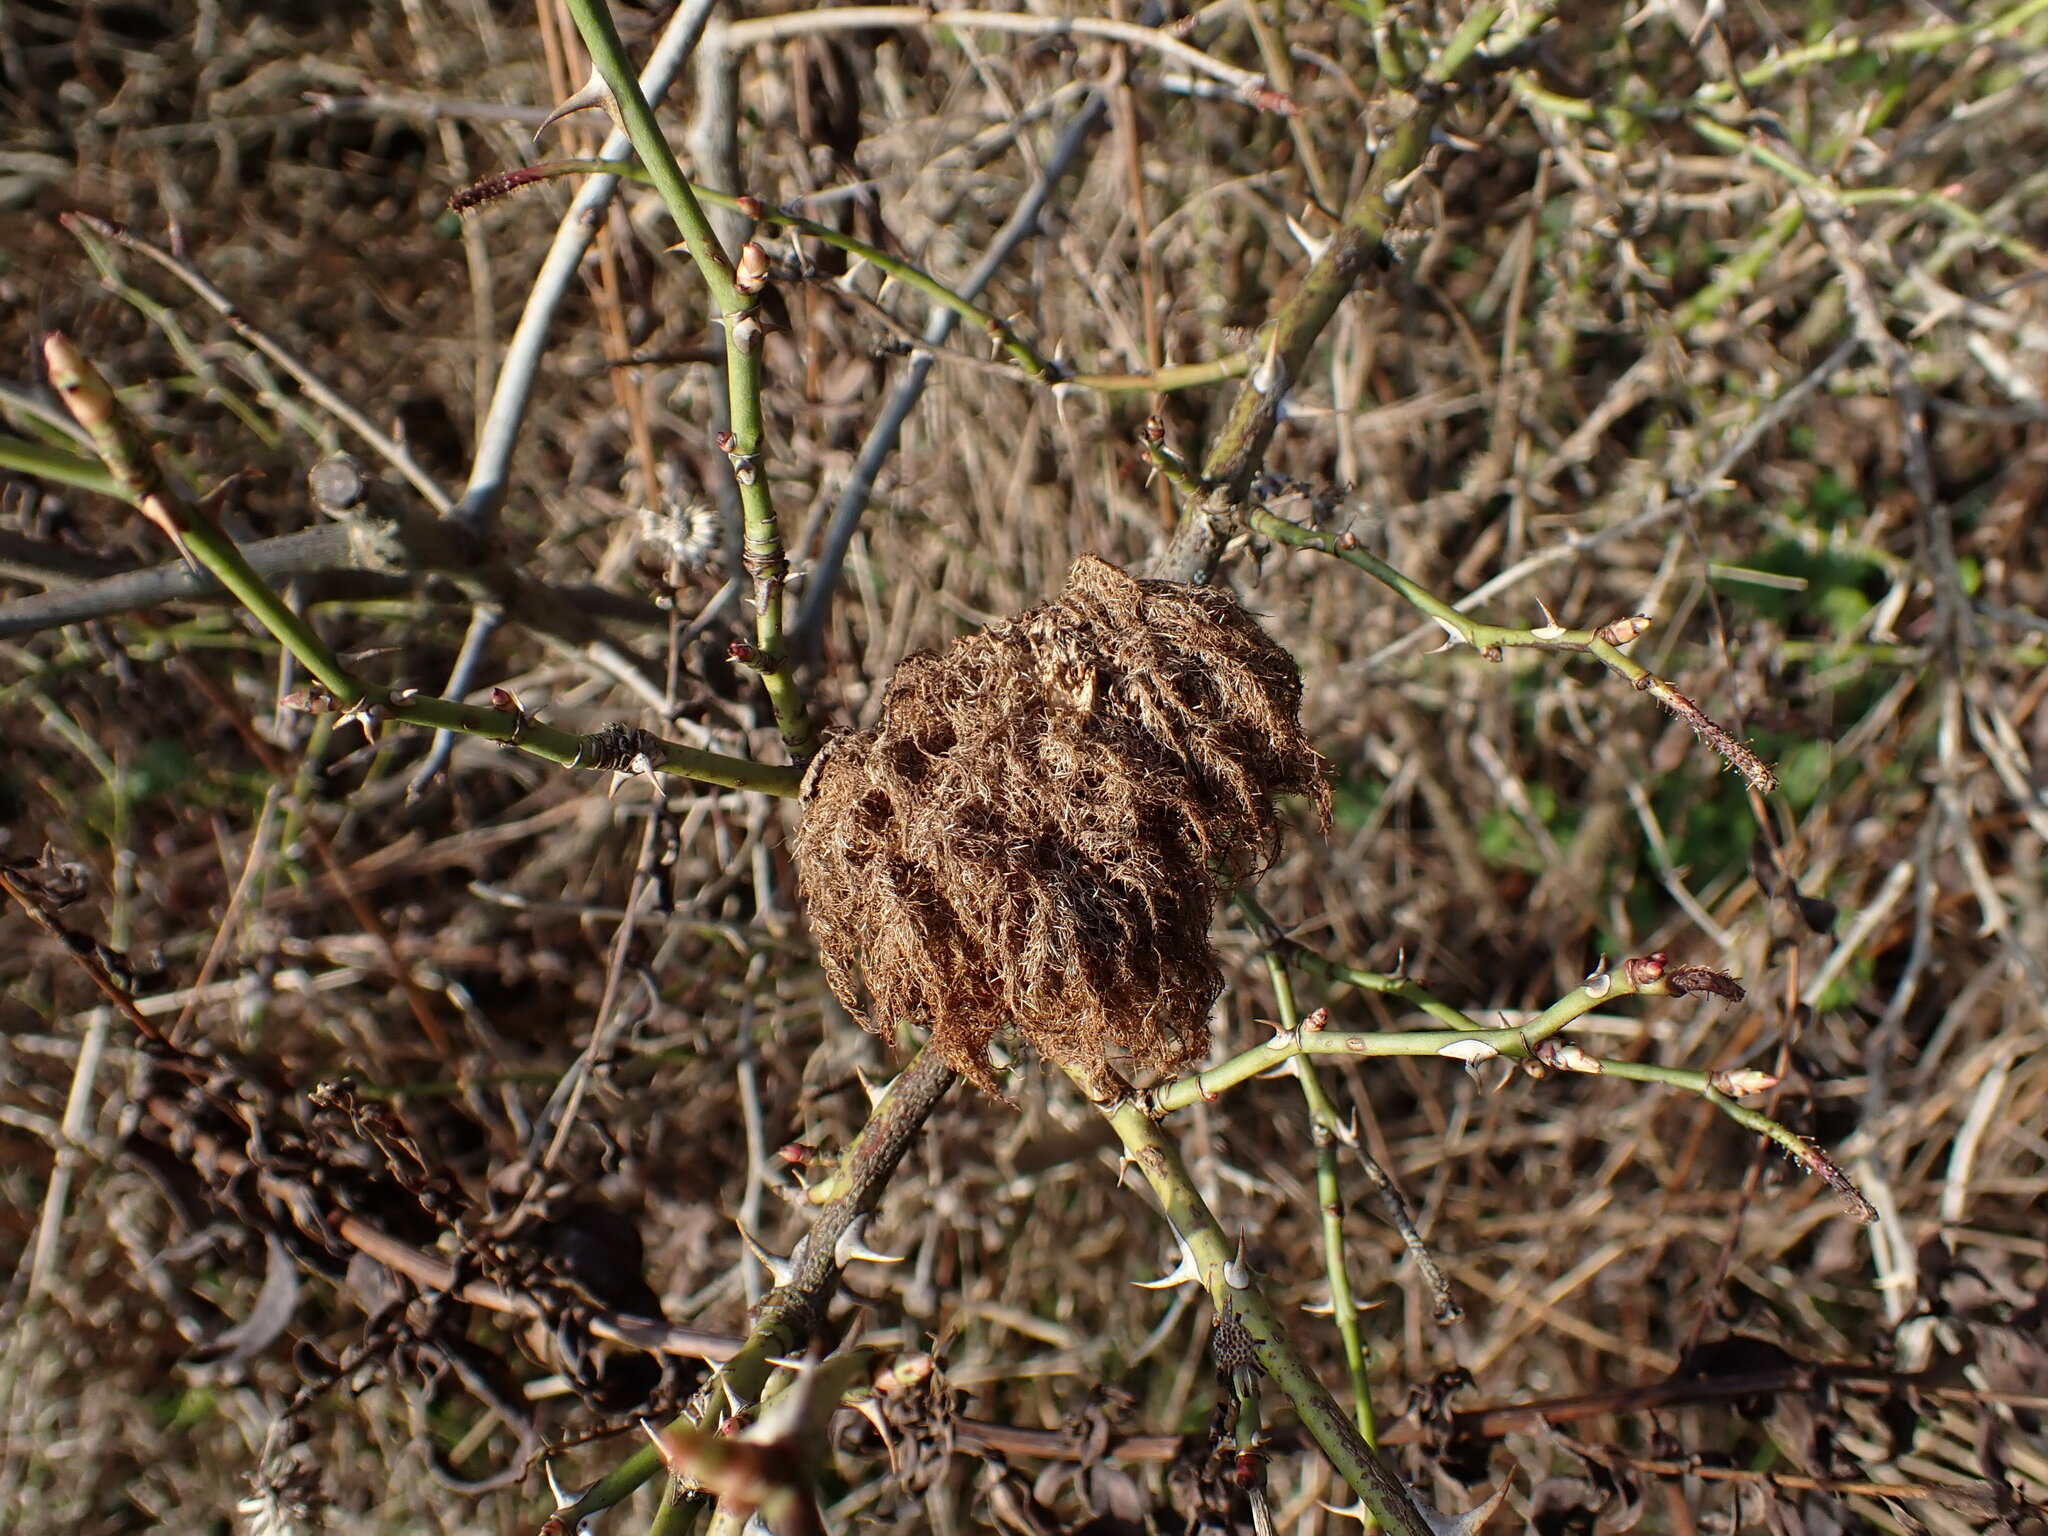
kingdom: Animalia
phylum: Arthropoda
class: Insecta
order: Hymenoptera
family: Cynipidae
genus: Diplolepis
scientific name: Diplolepis rosae
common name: Bedeguar gall
